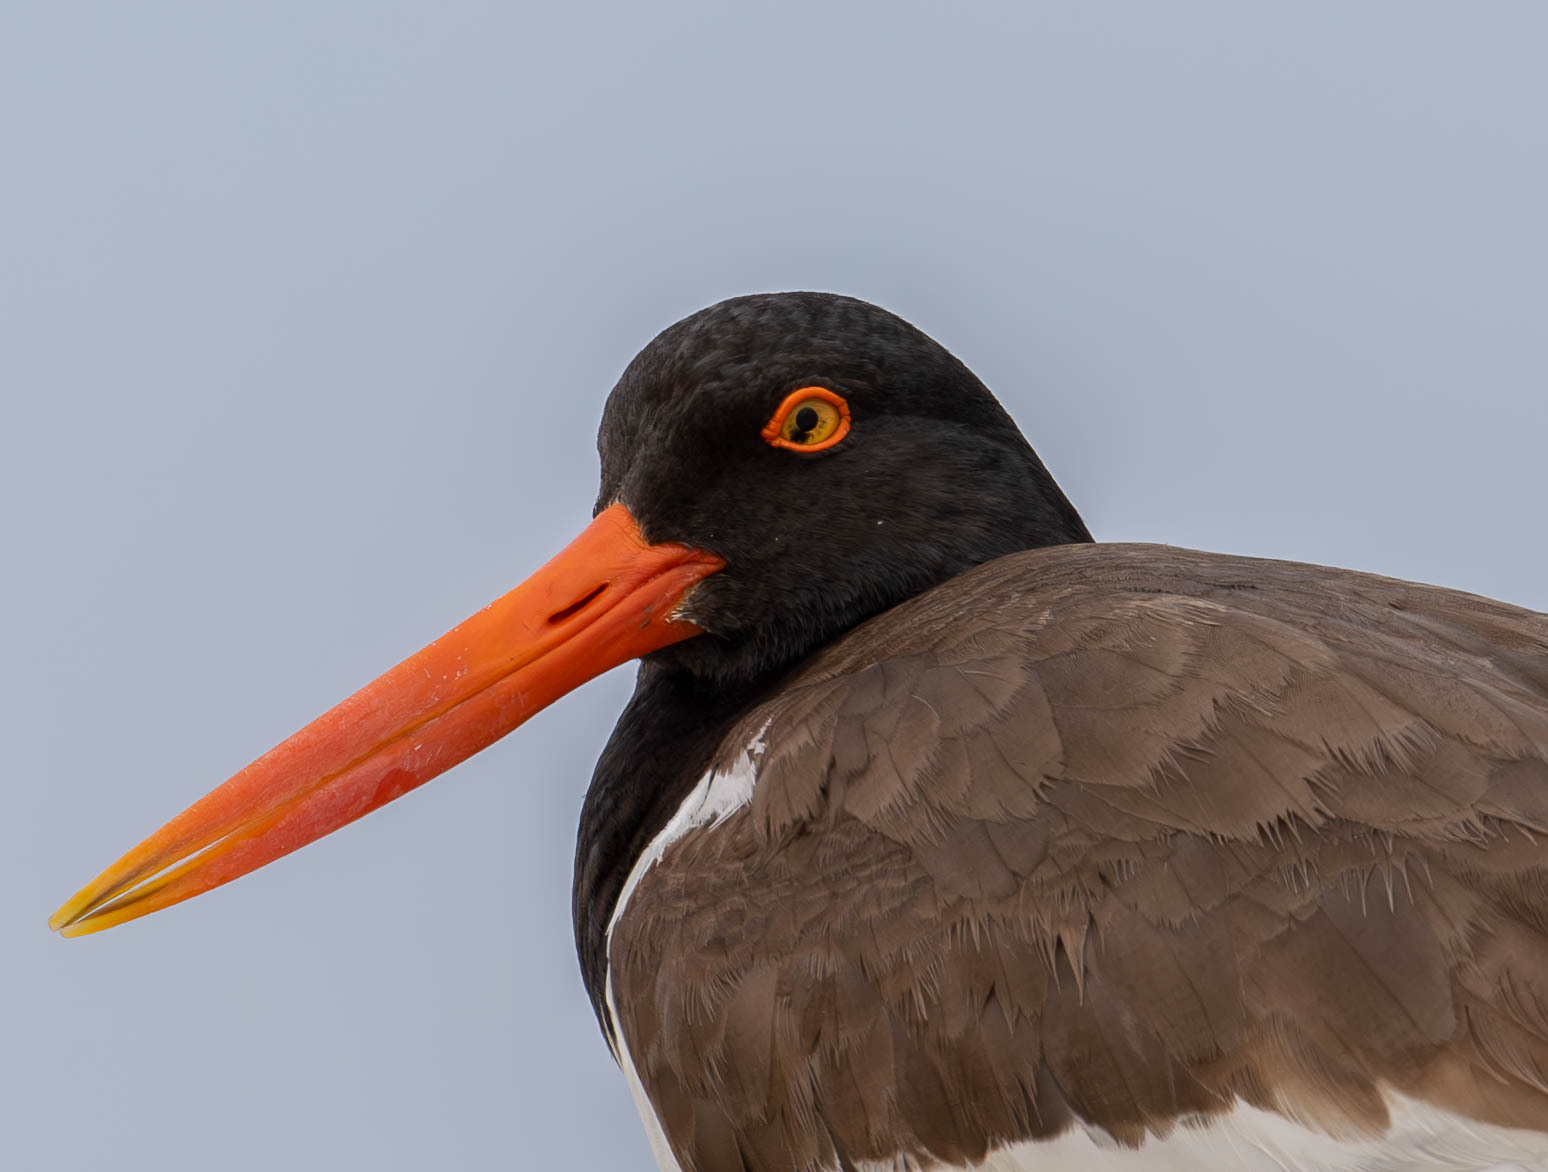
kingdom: Animalia
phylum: Chordata
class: Aves
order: Charadriiformes
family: Haematopodidae
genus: Haematopus
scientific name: Haematopus palliatus
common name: American oystercatcher
